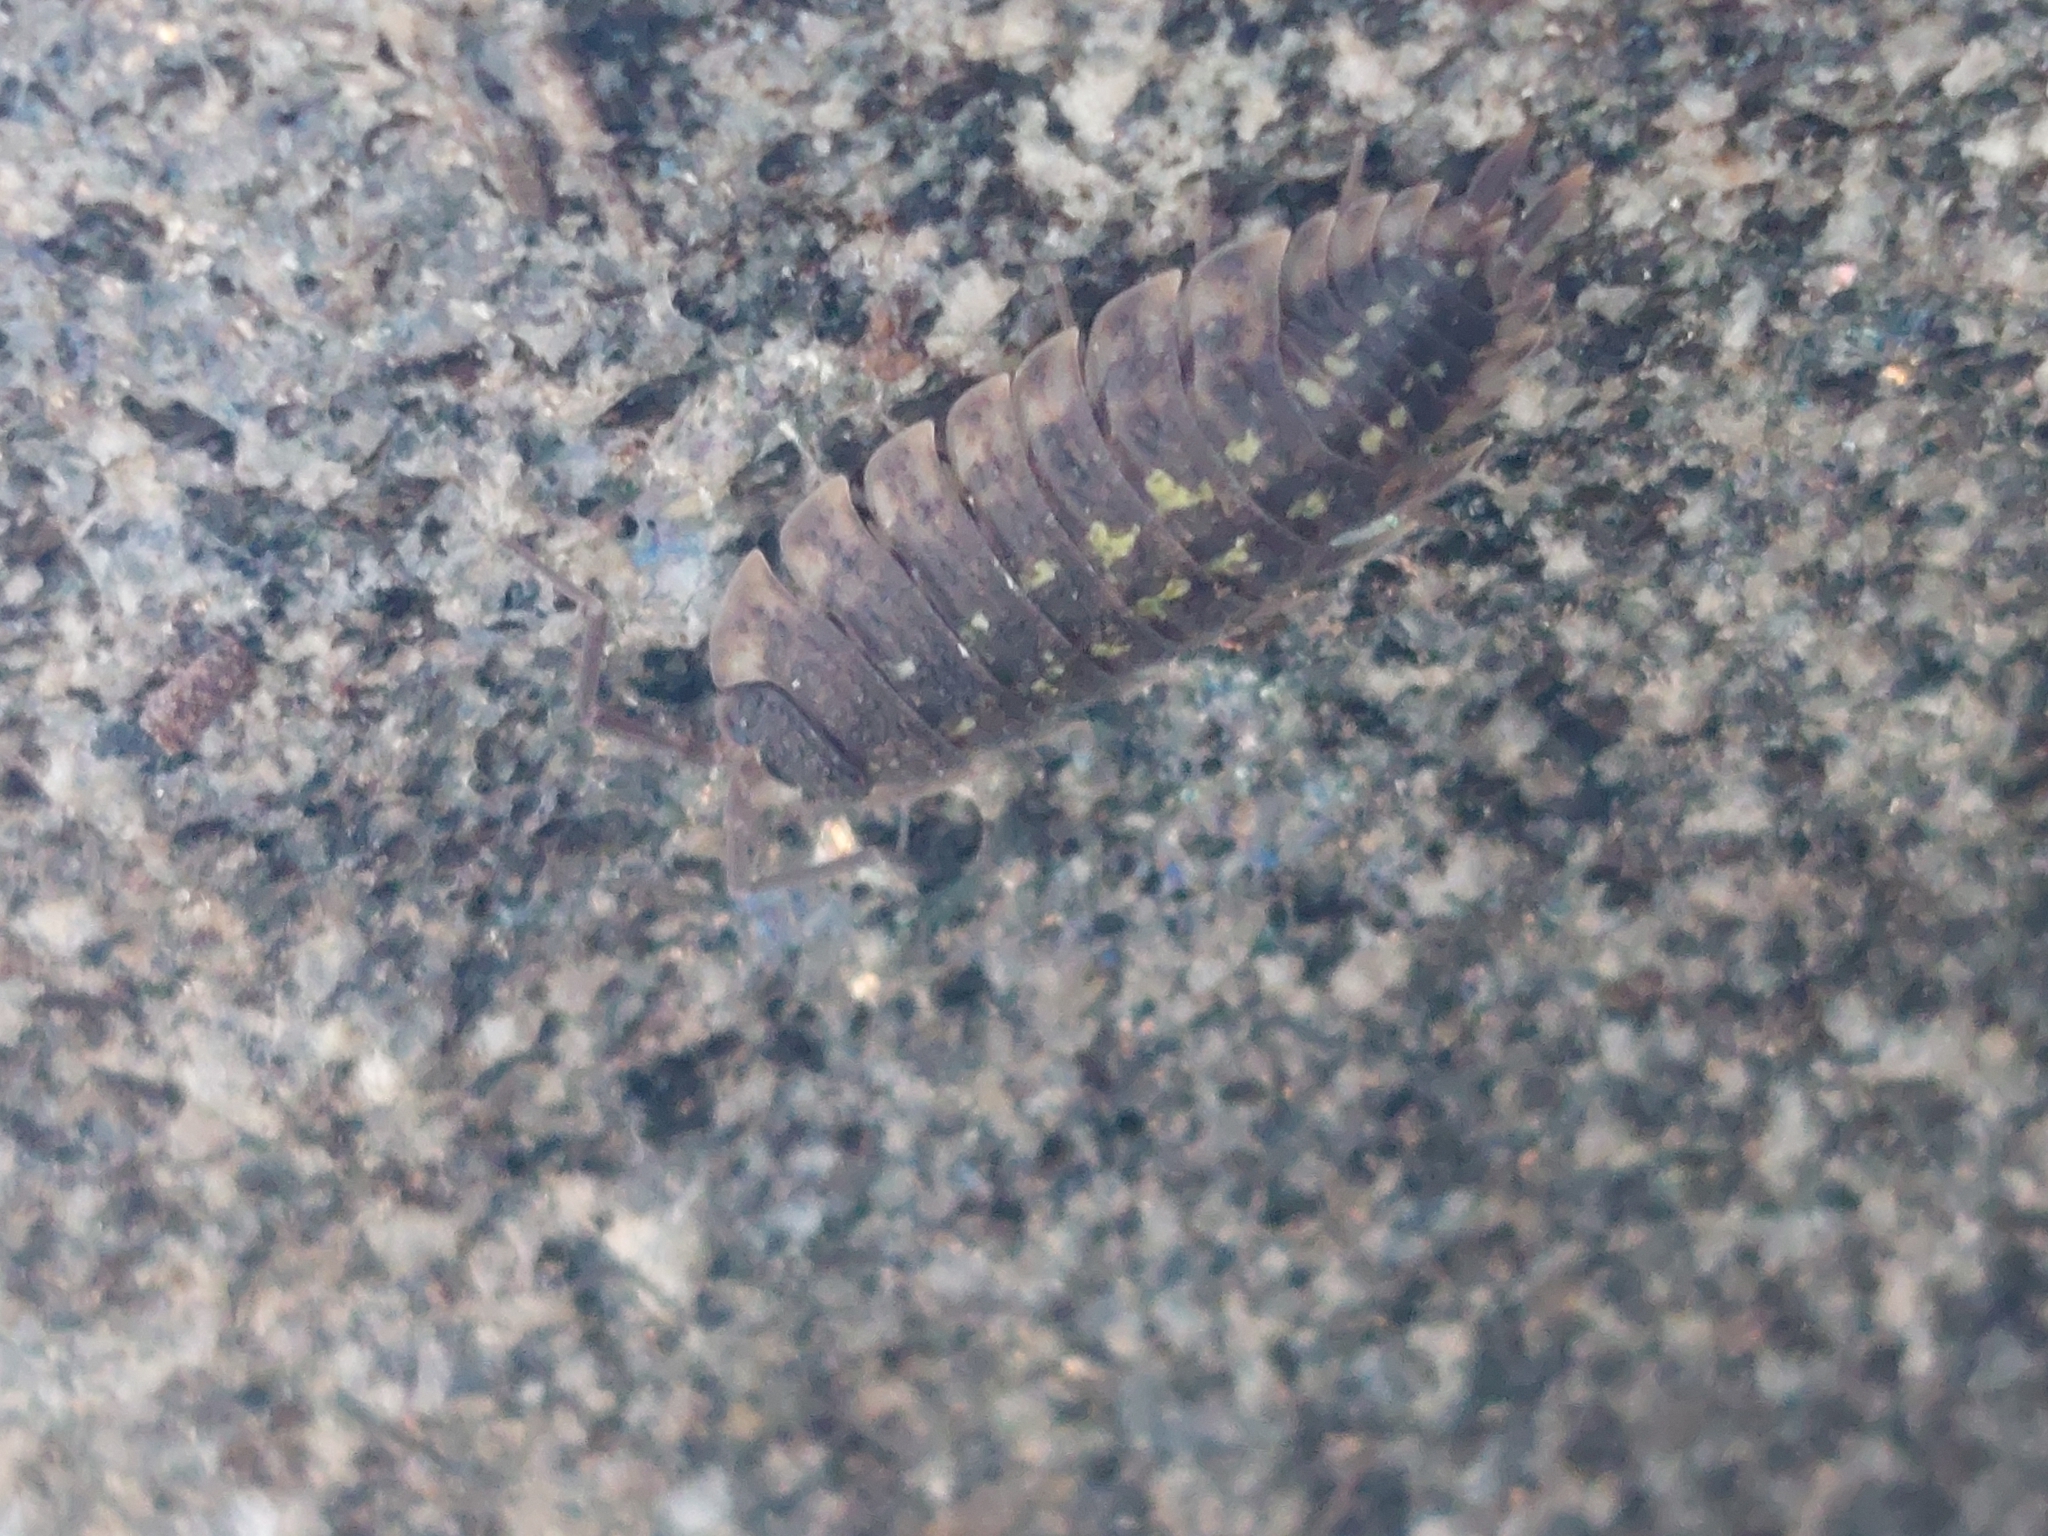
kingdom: Animalia
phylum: Arthropoda
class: Malacostraca
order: Isopoda
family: Porcellionidae
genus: Porcellio
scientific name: Porcellio spinicornis
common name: Painted woodlouse
